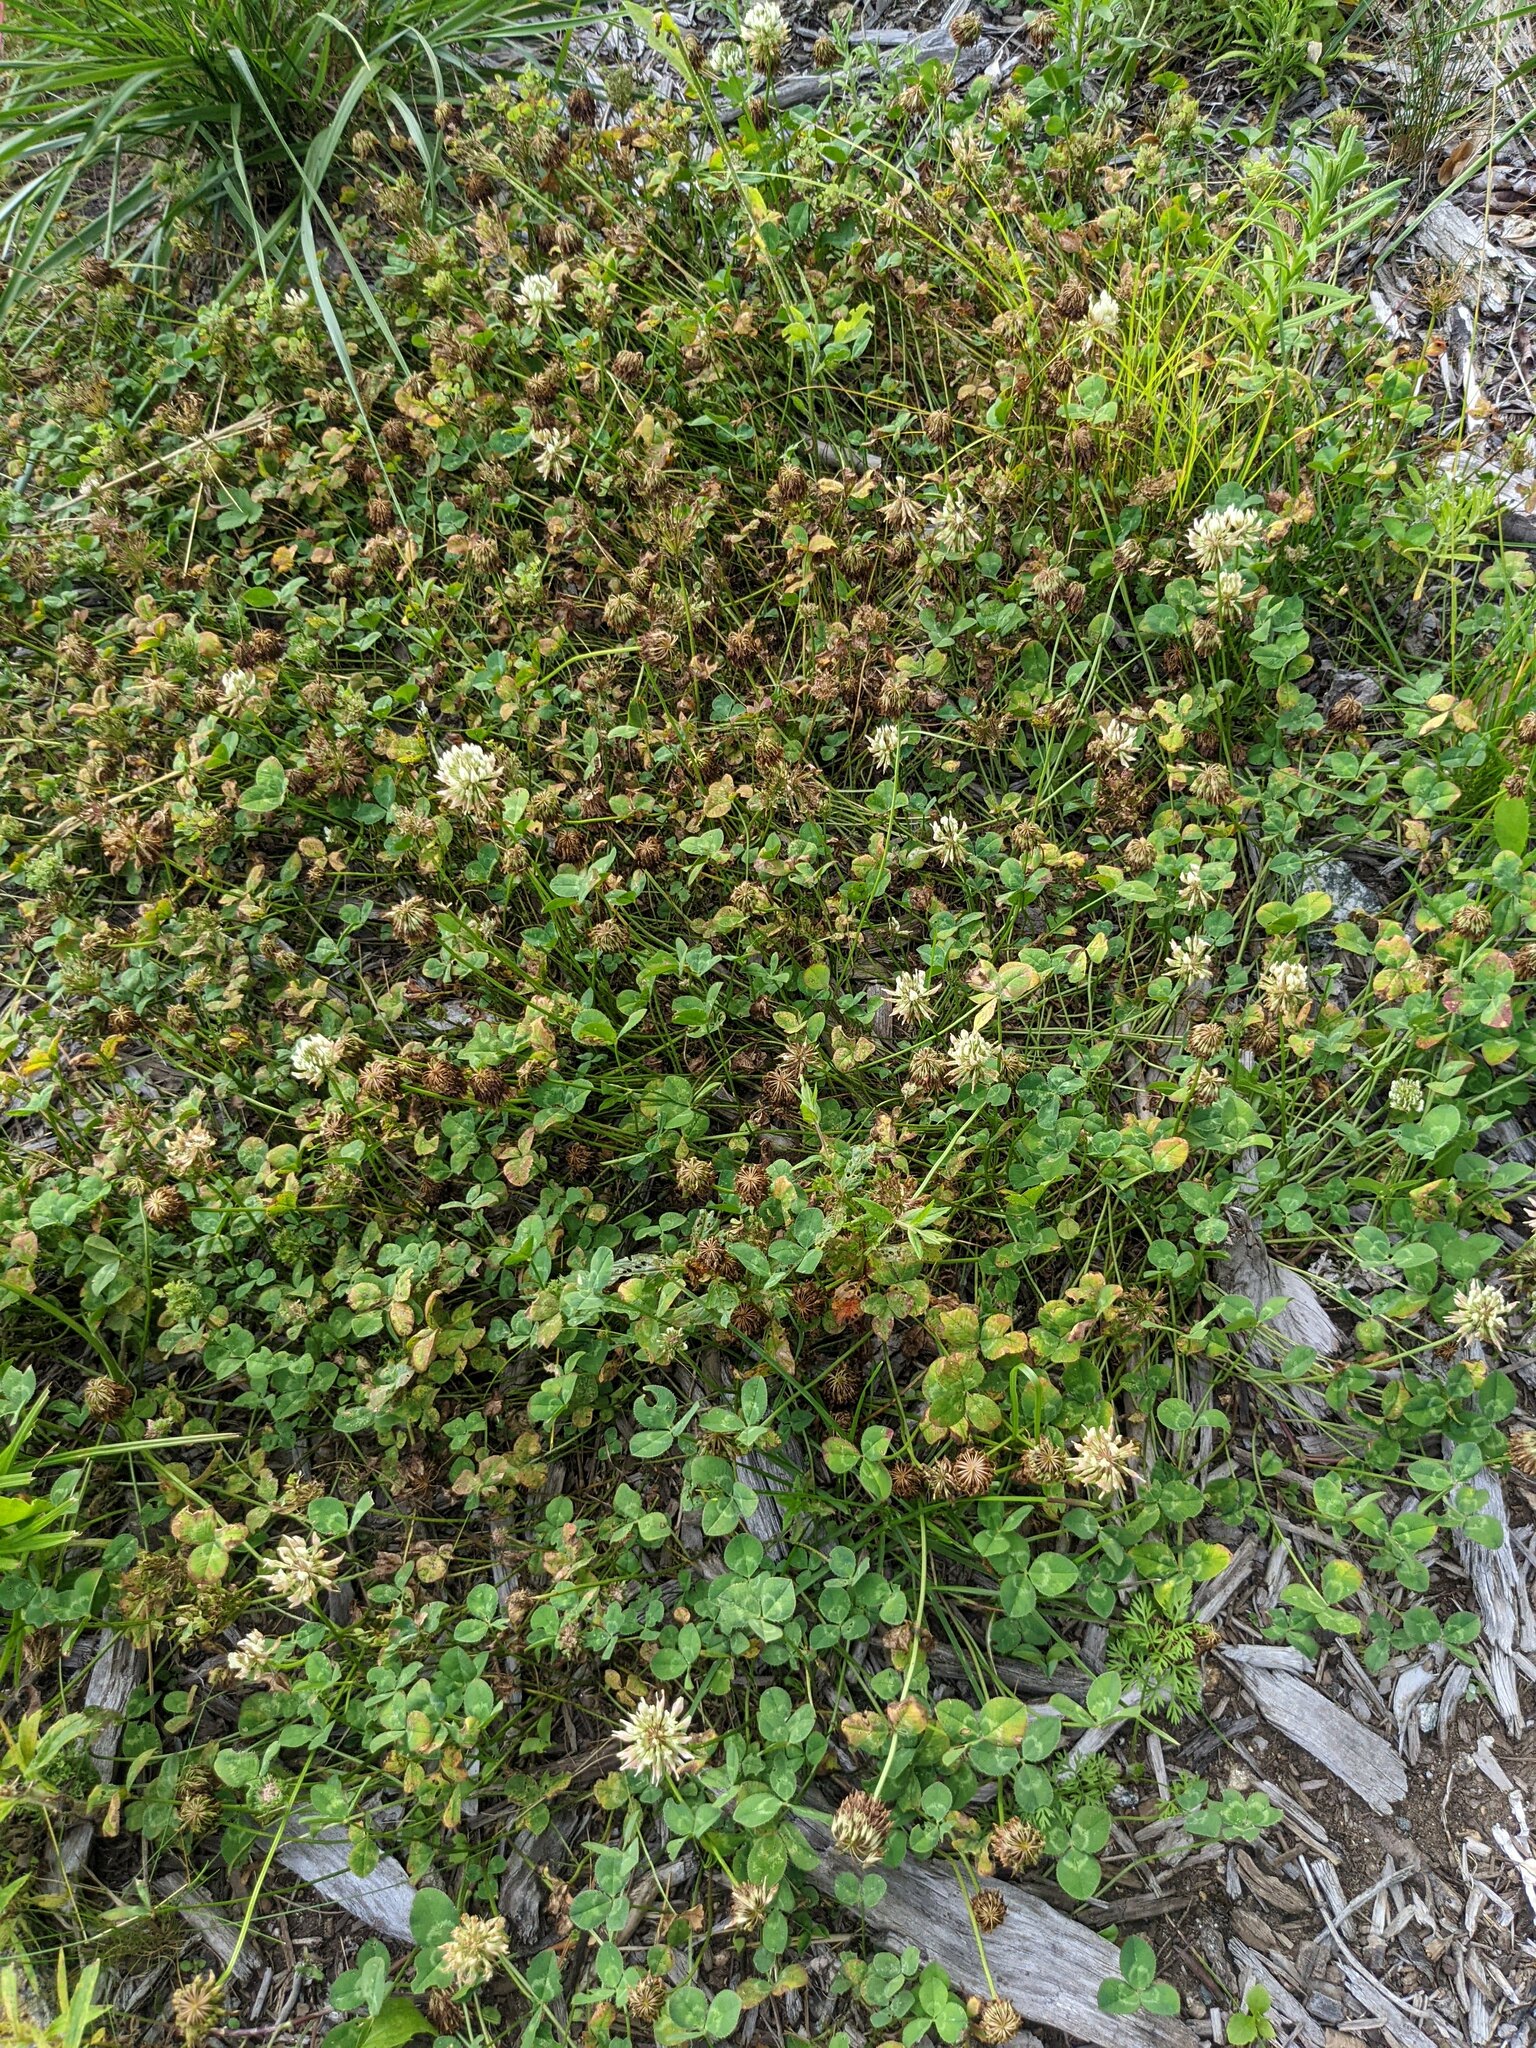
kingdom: Plantae
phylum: Tracheophyta
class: Magnoliopsida
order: Fabales
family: Fabaceae
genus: Trifolium
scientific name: Trifolium repens
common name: White clover
